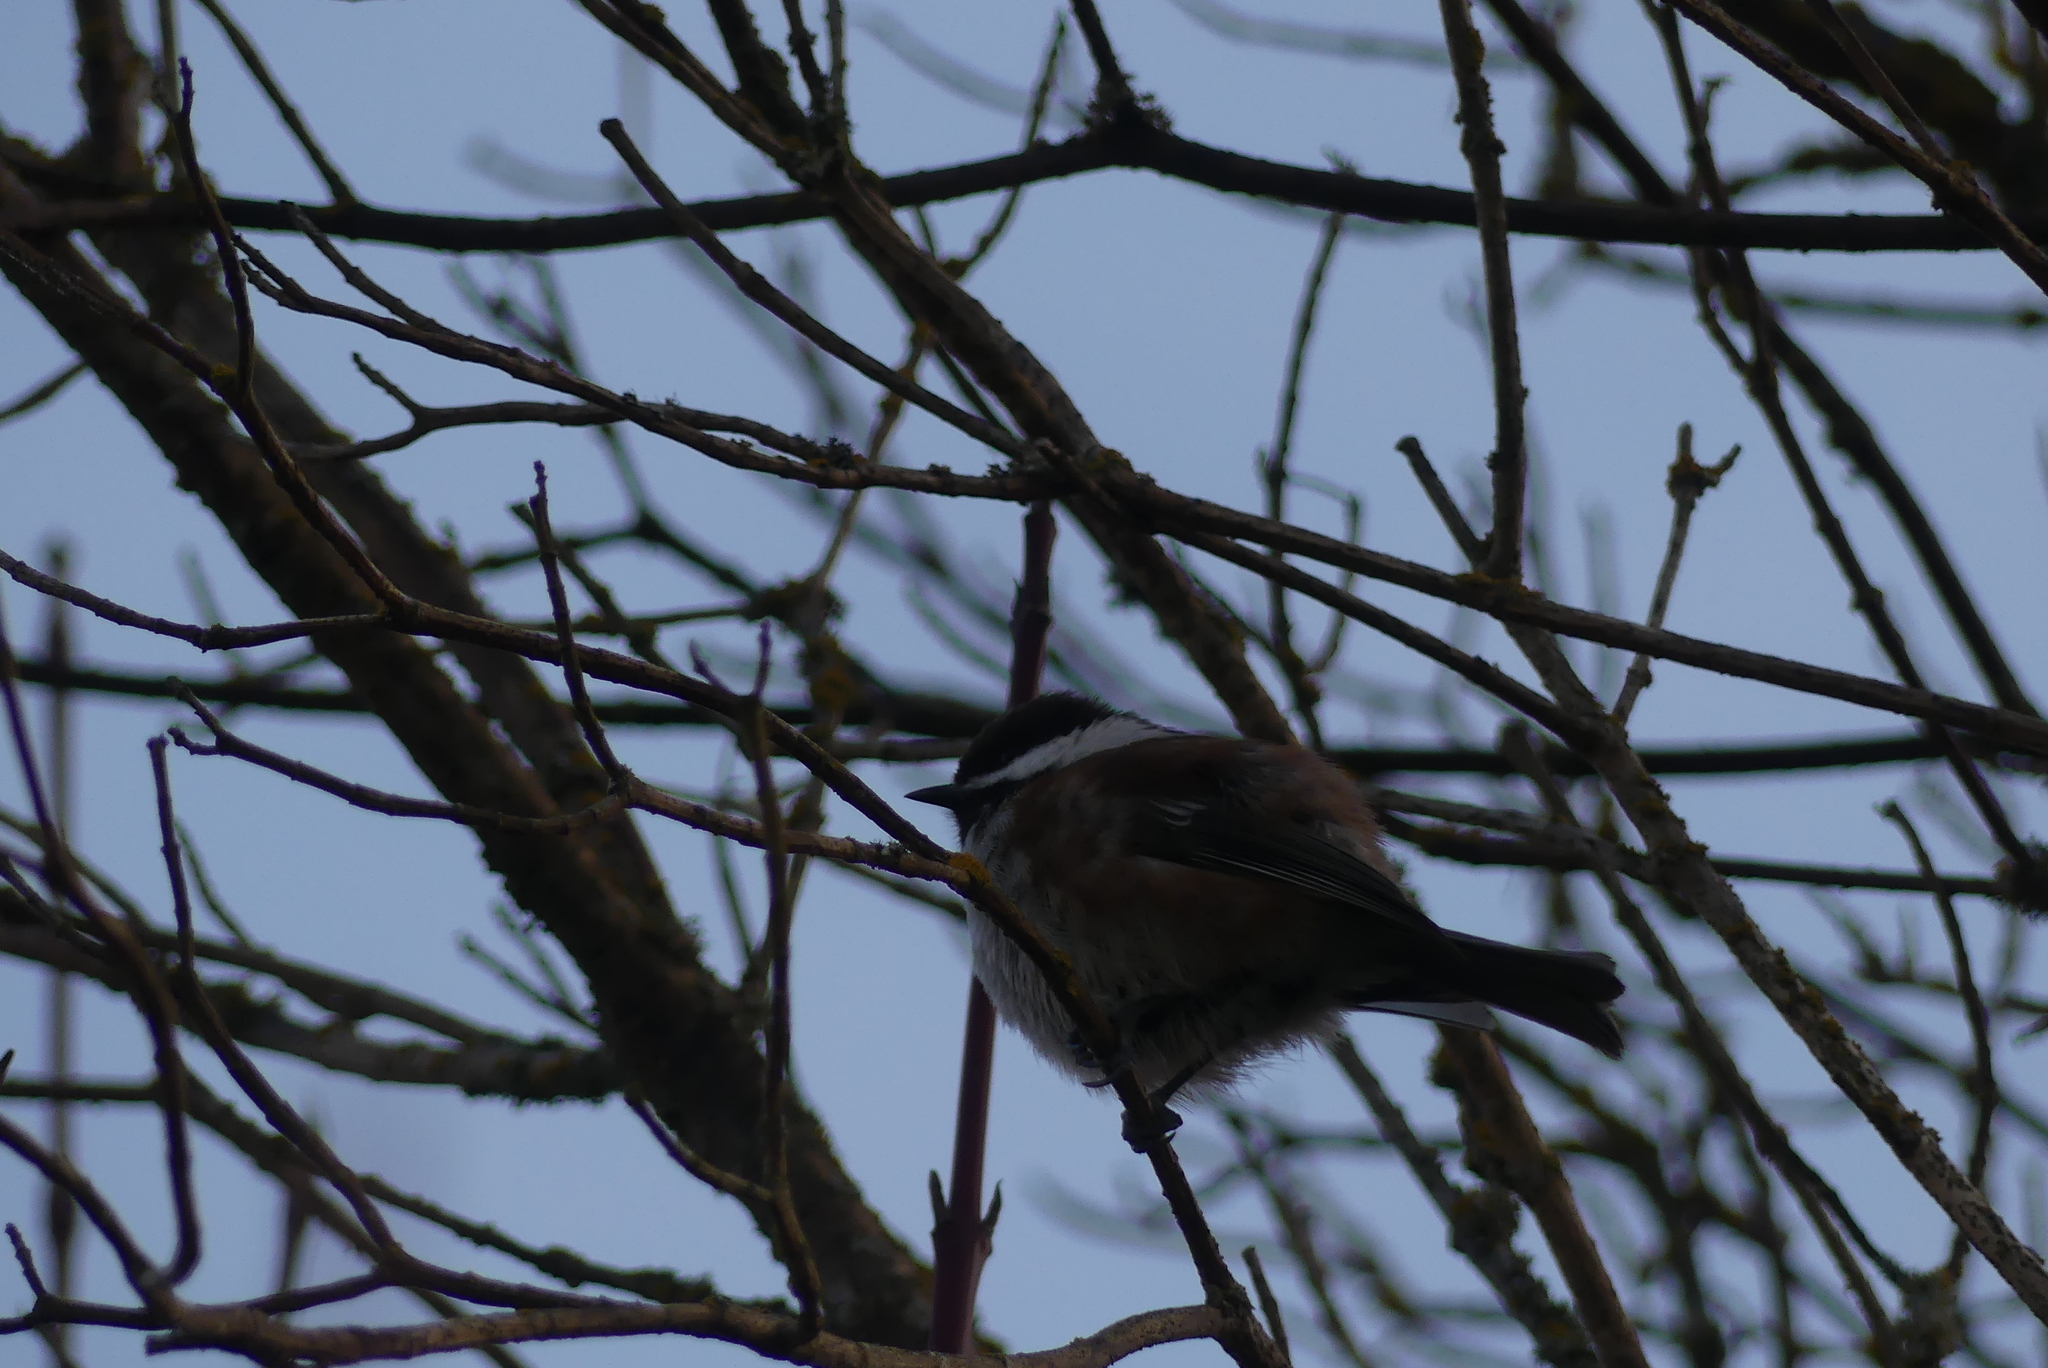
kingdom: Animalia
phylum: Chordata
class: Aves
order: Passeriformes
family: Paridae
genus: Poecile
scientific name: Poecile rufescens
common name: Chestnut-backed chickadee
